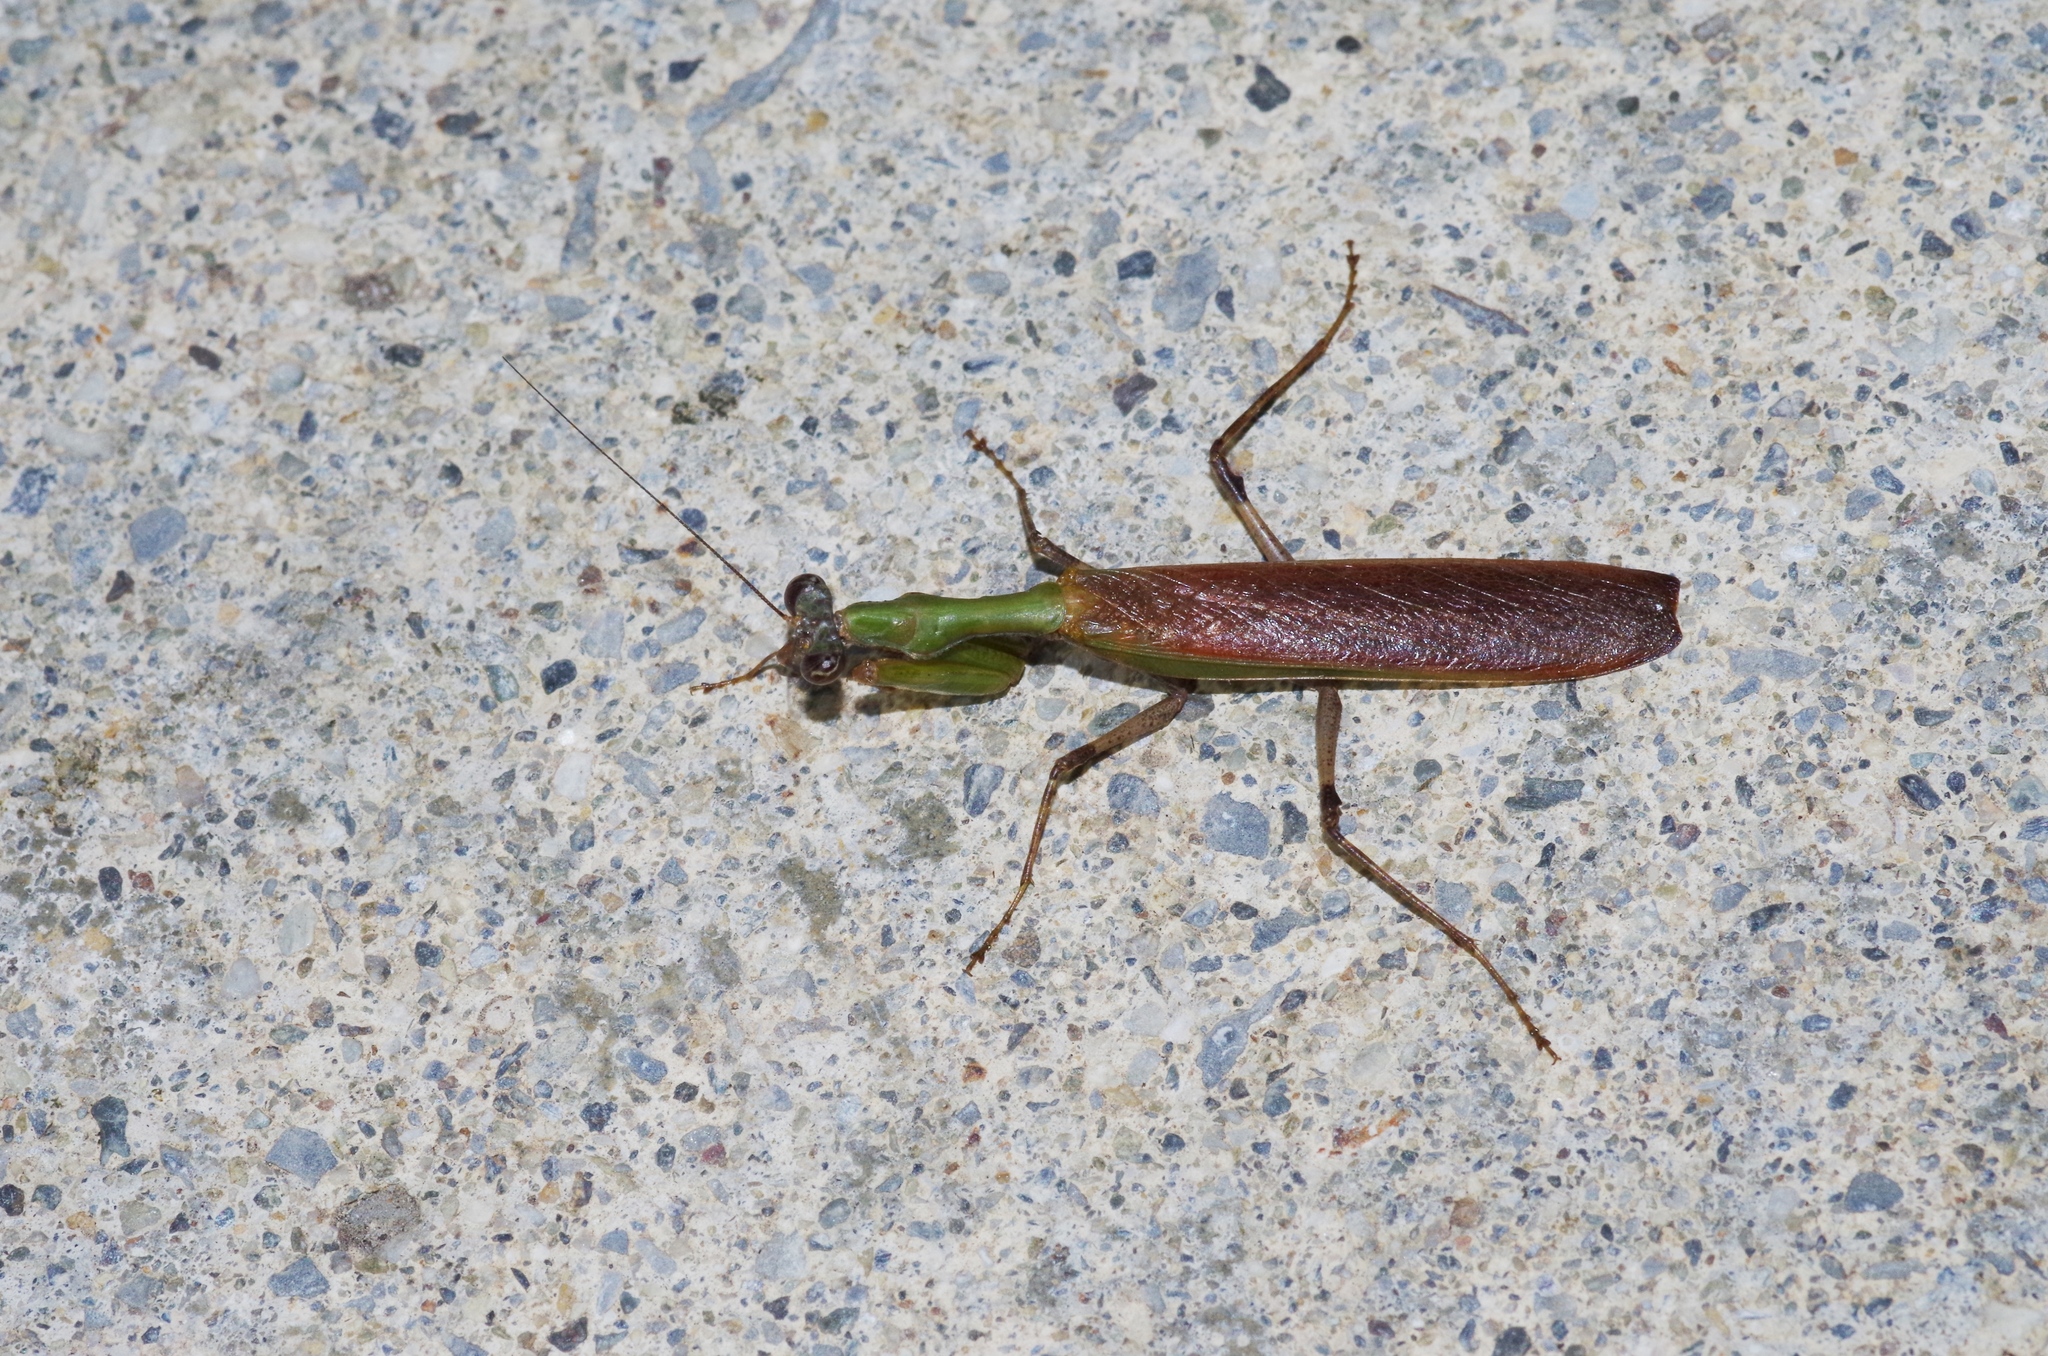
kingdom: Animalia
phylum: Arthropoda
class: Insecta
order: Mantodea
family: Hymenopodidae
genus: Acromantis
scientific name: Acromantis satsumensis
